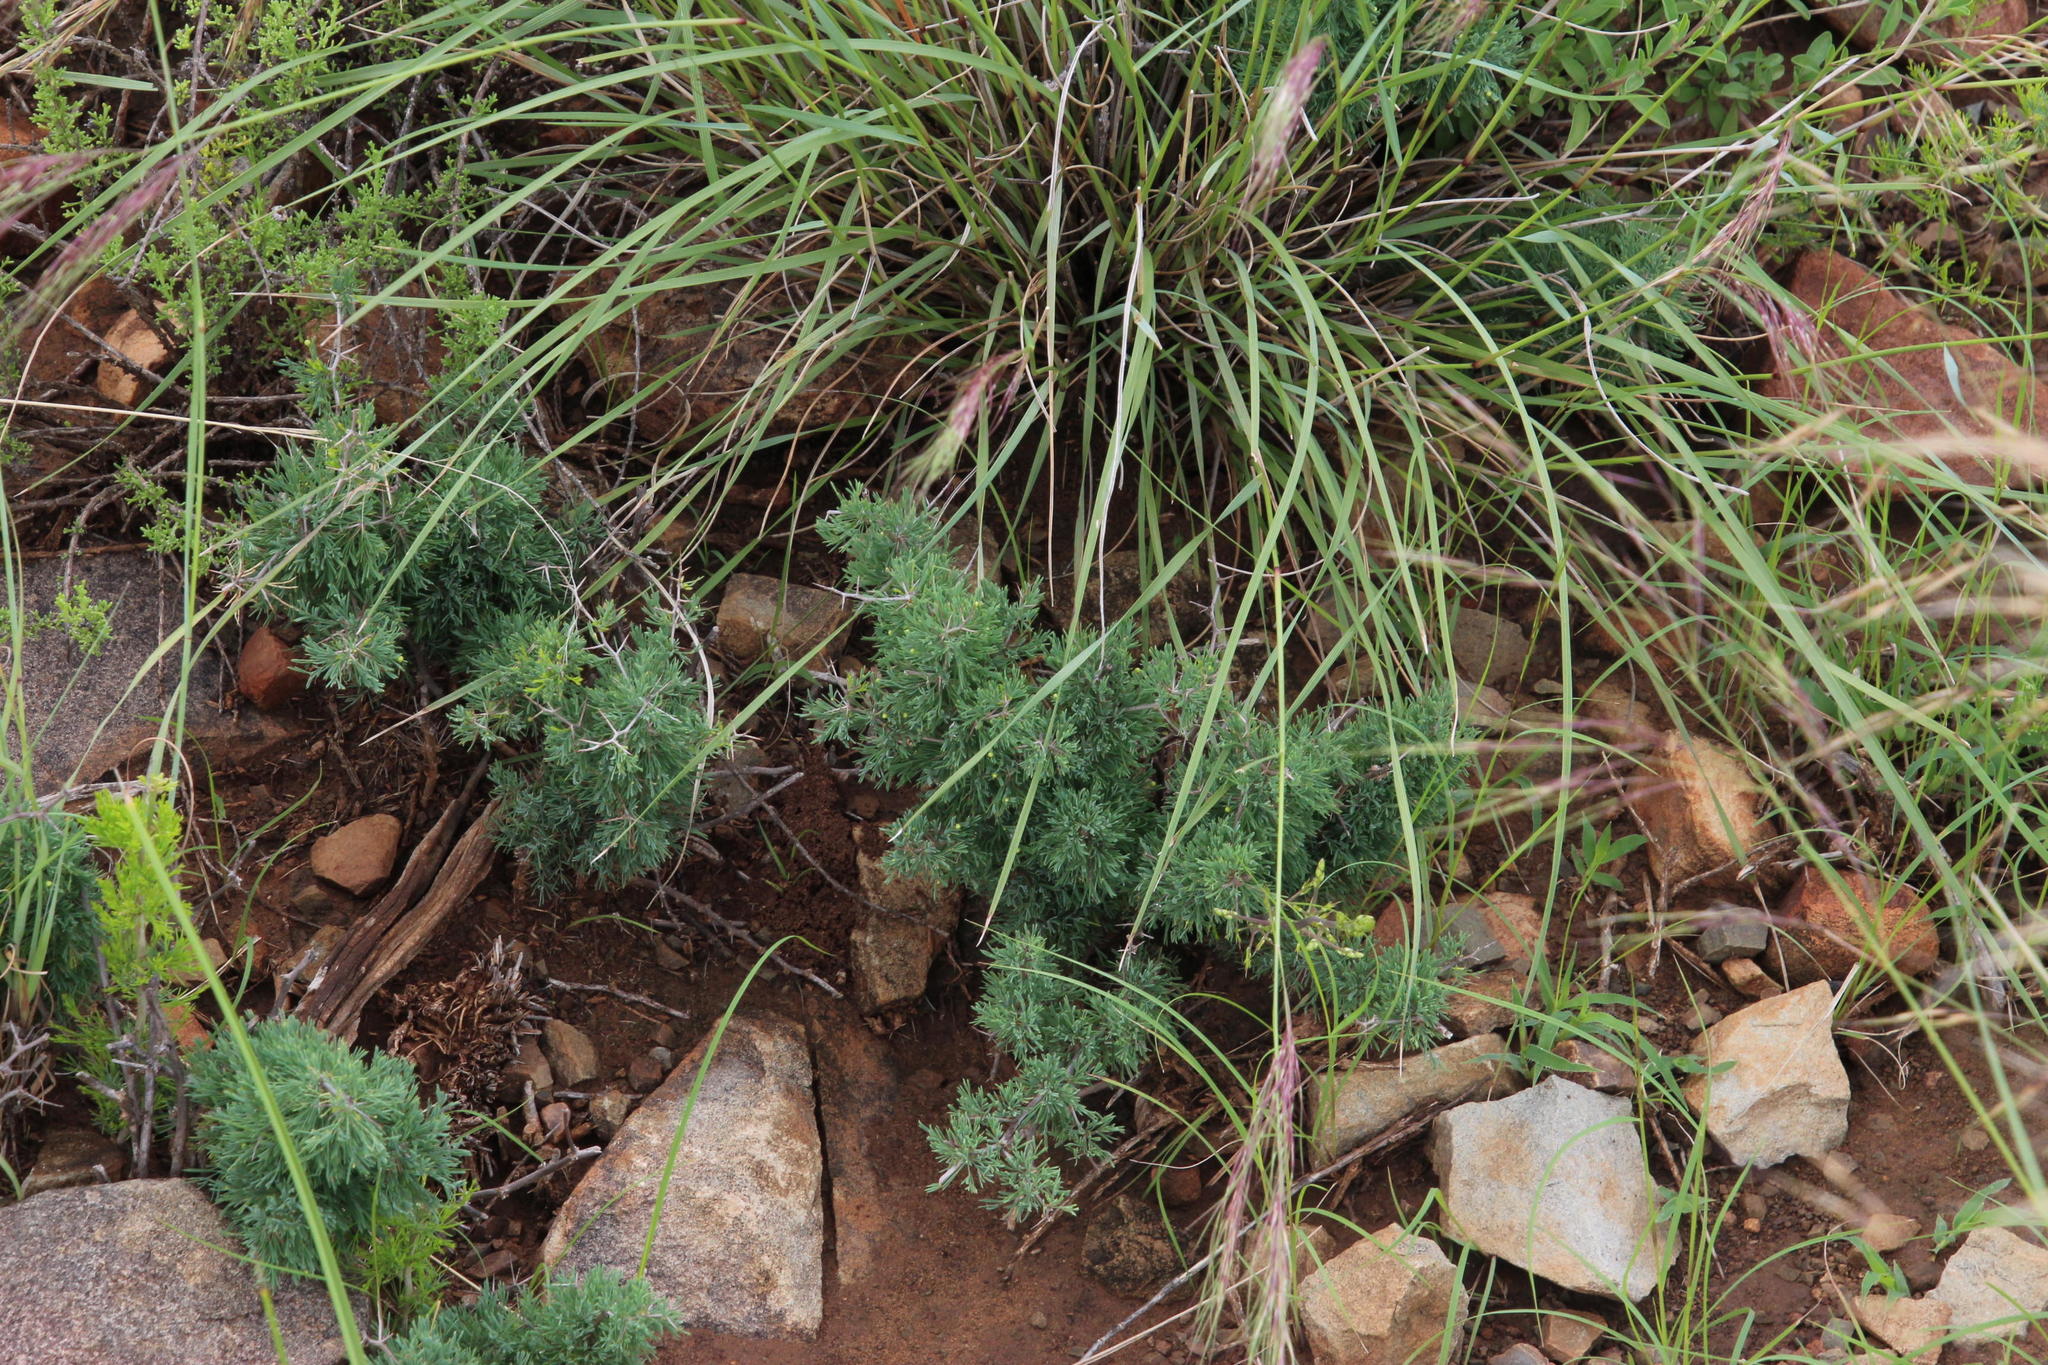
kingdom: Plantae
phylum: Tracheophyta
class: Liliopsida
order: Asparagales
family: Asparagaceae
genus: Asparagus
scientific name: Asparagus suaveolens
